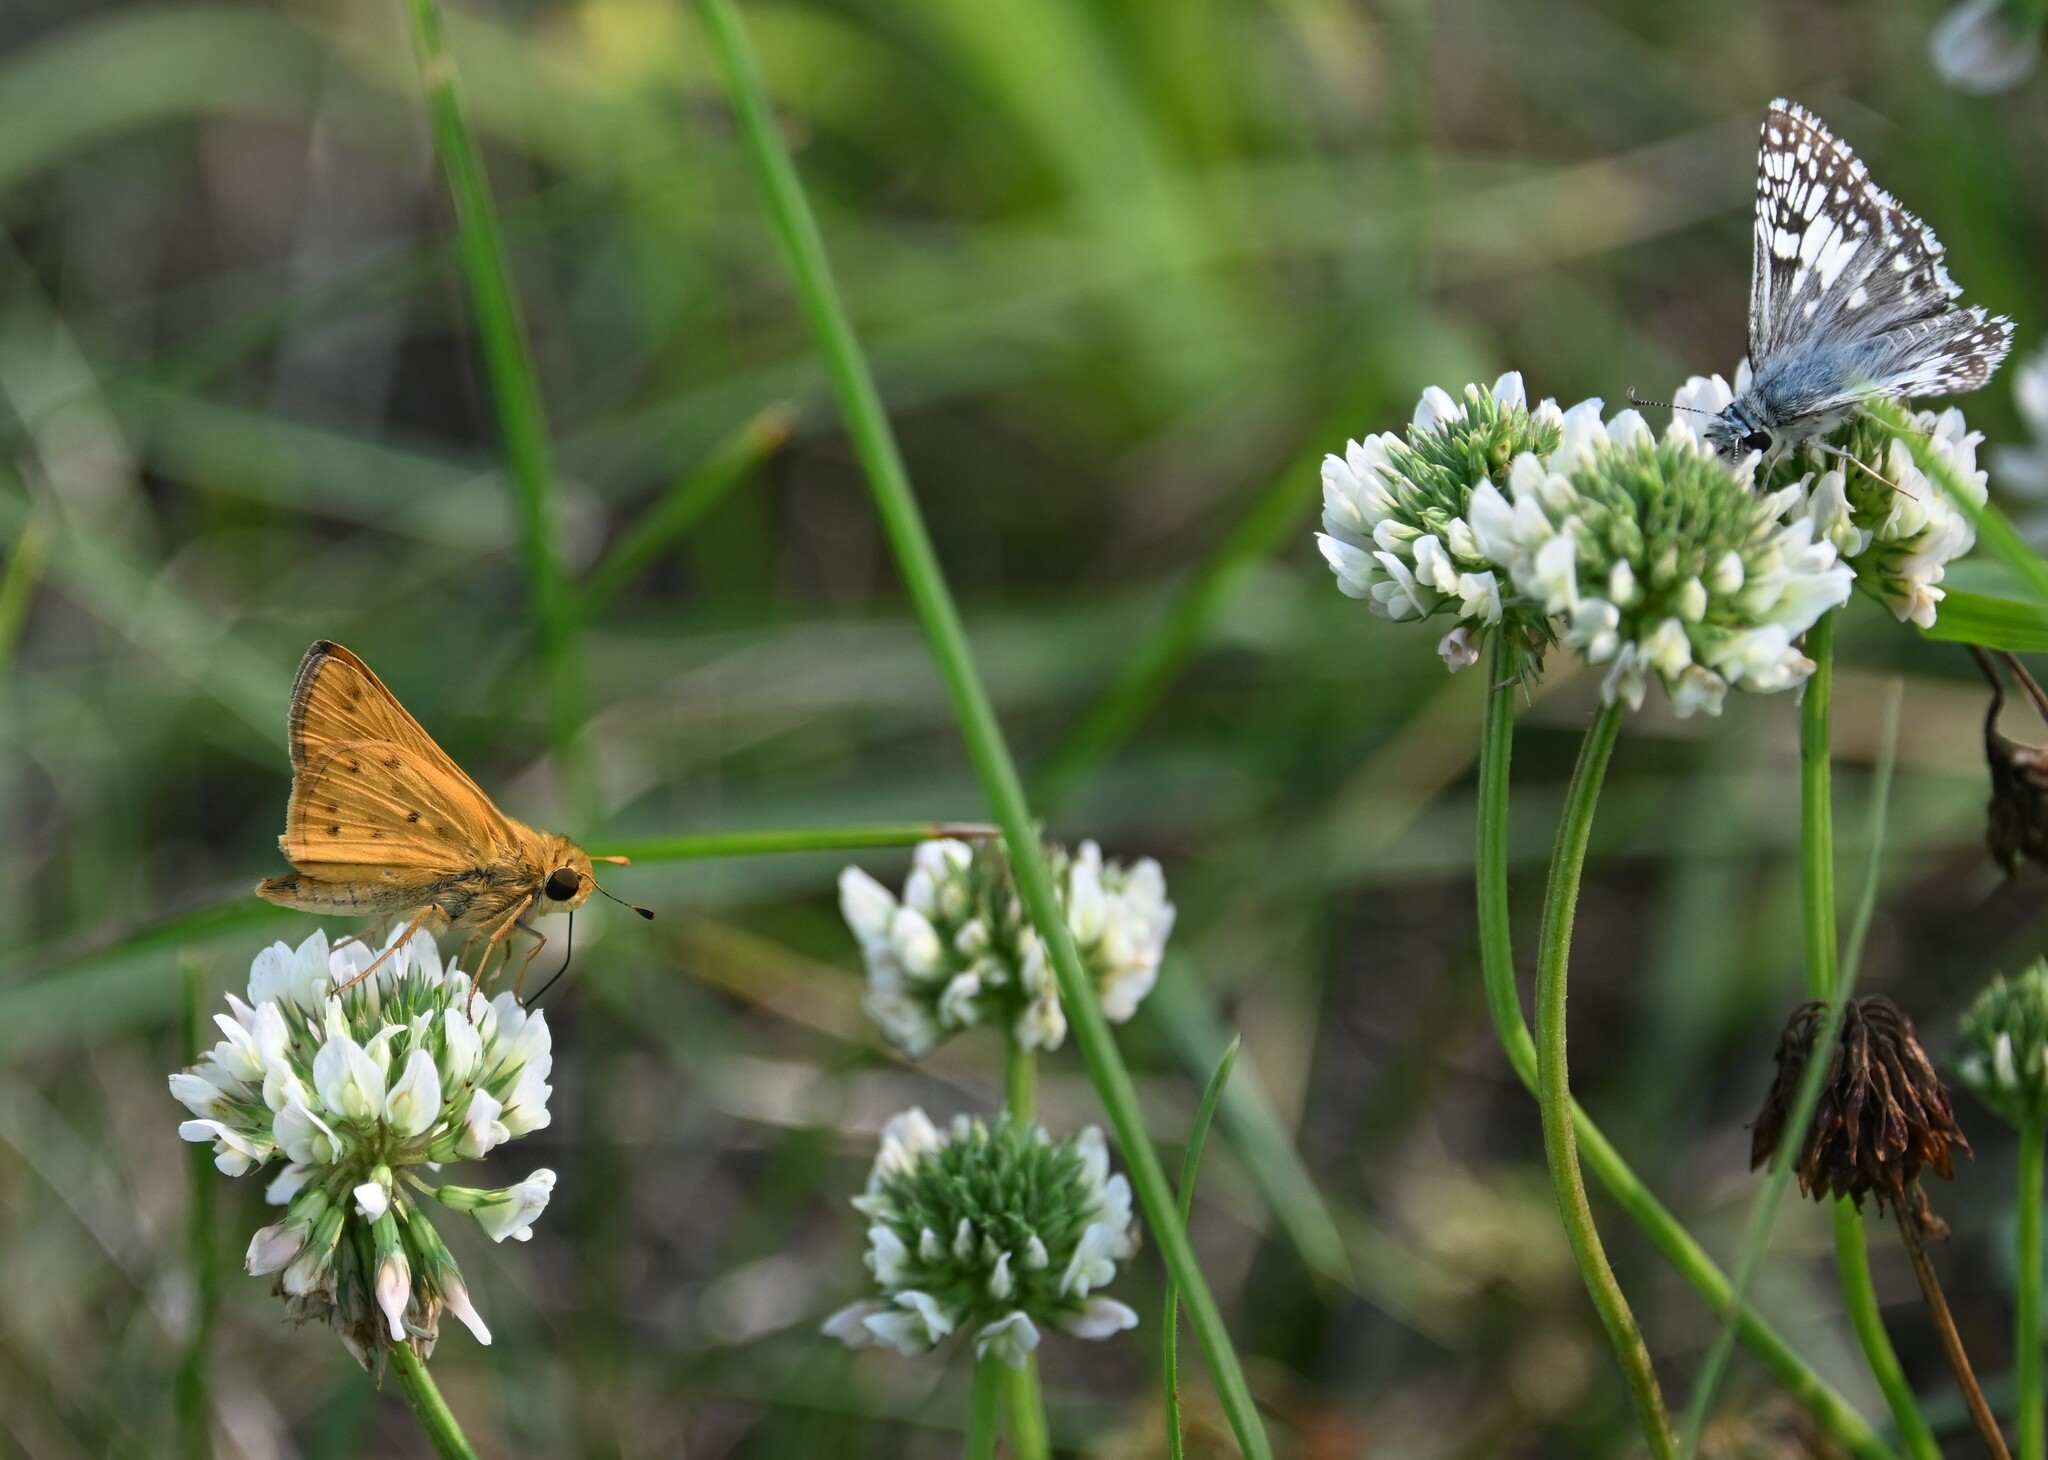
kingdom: Animalia
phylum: Arthropoda
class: Insecta
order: Lepidoptera
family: Hesperiidae
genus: Hylephila
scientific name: Hylephila phyleus
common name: Fiery skipper
